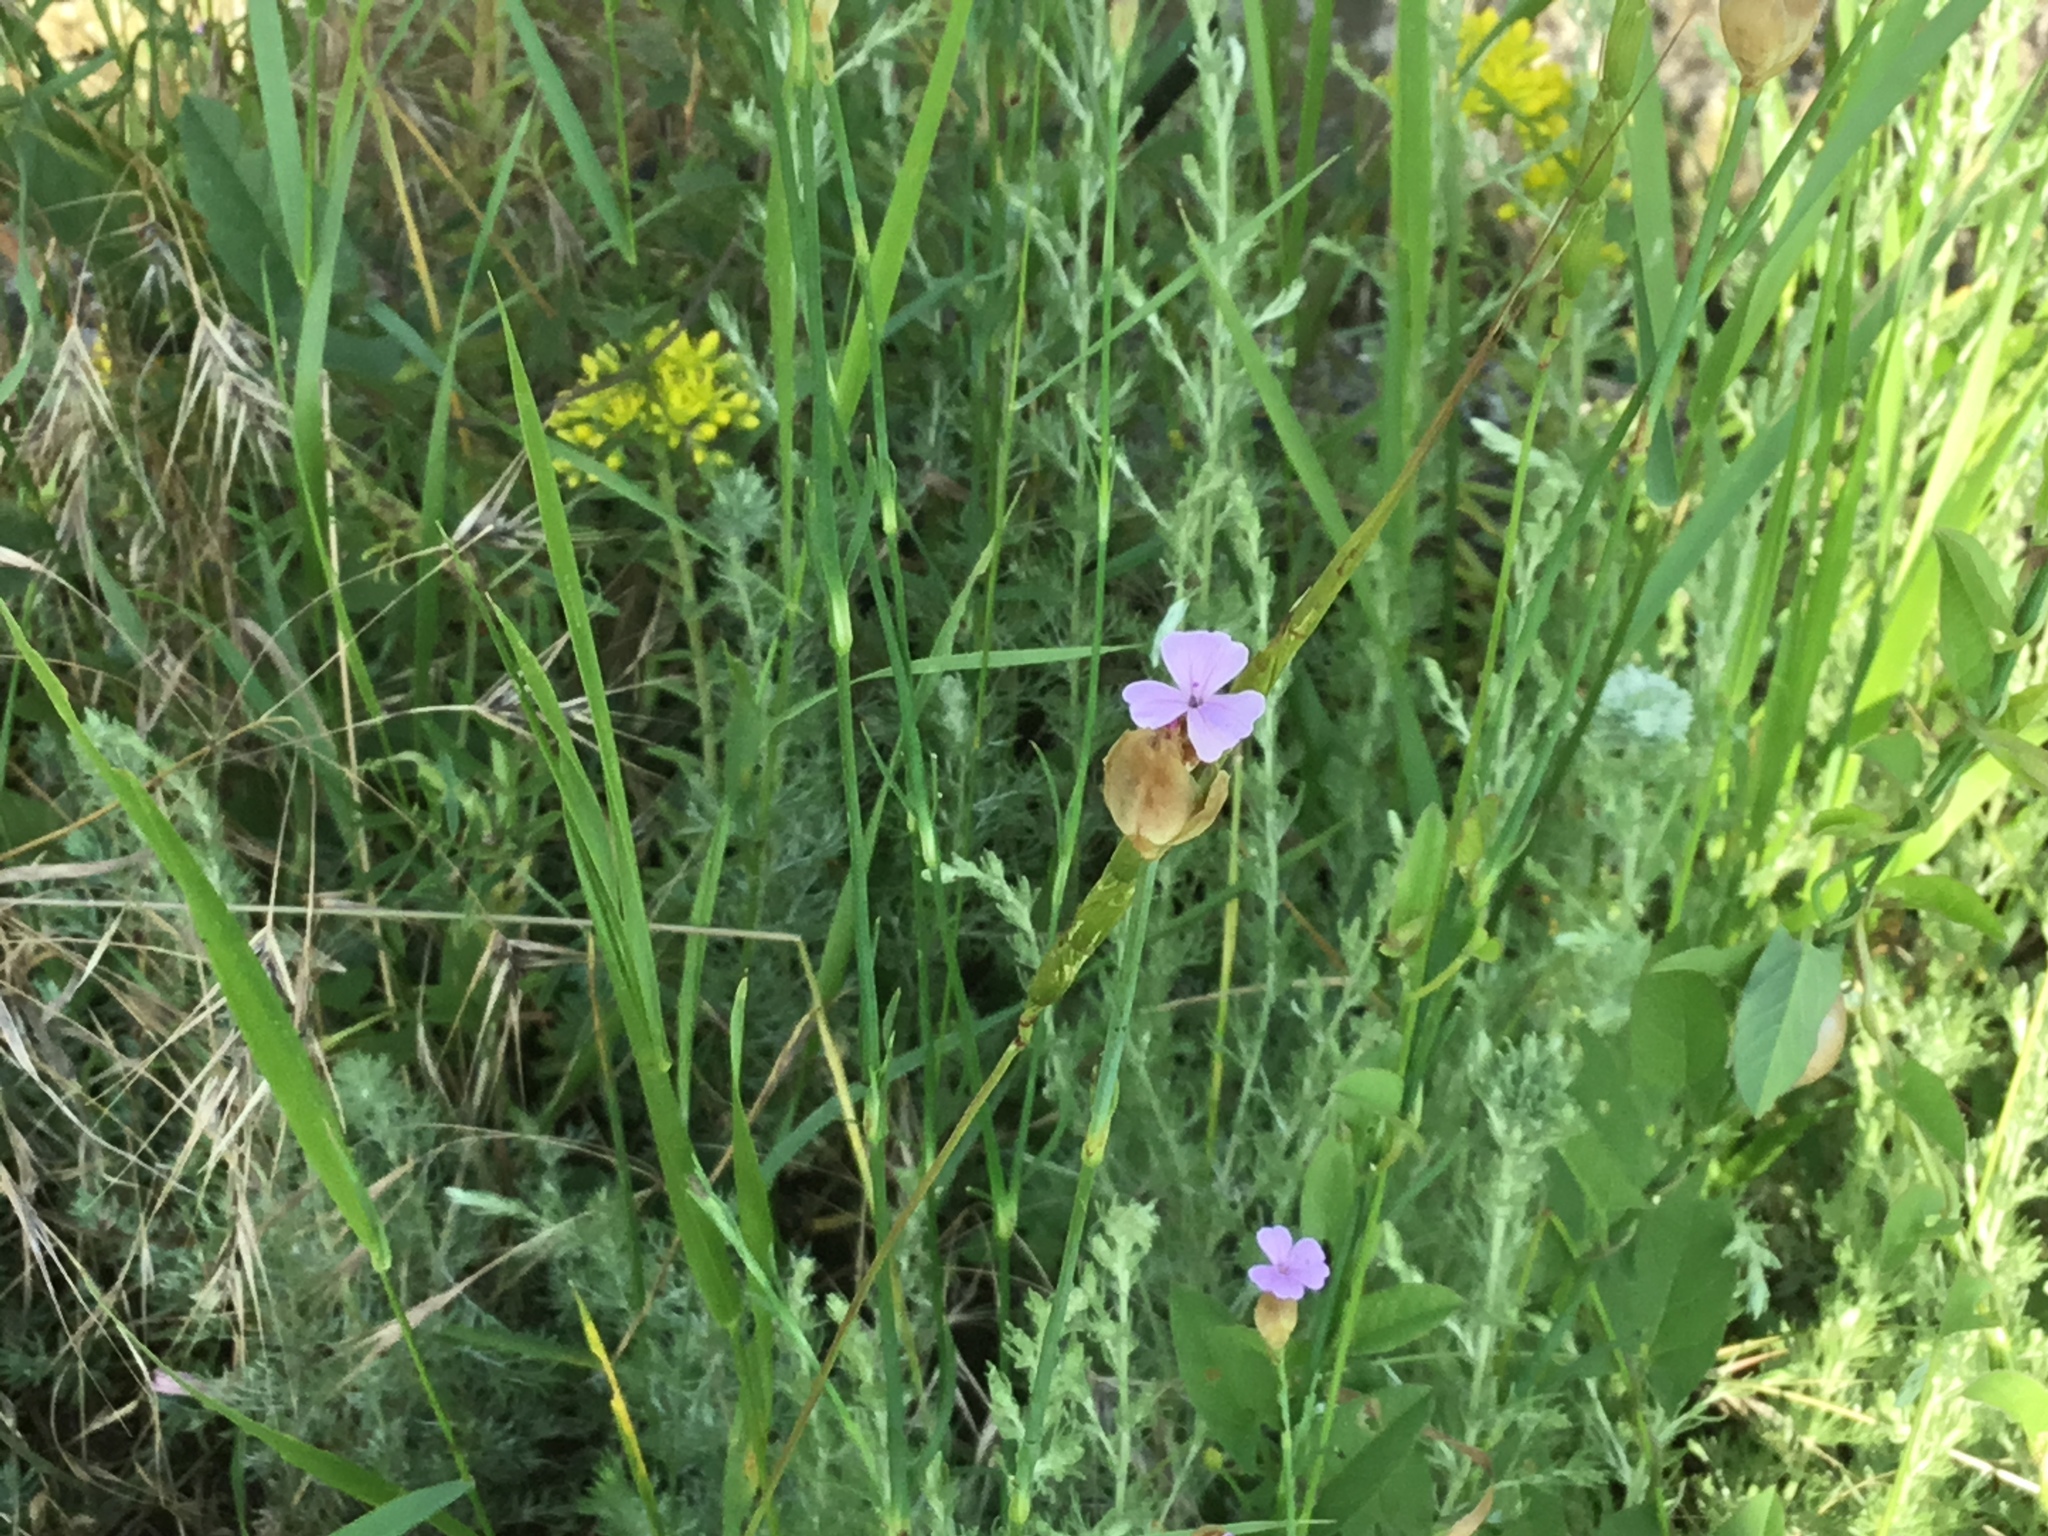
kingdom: Plantae
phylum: Tracheophyta
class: Magnoliopsida
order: Caryophyllales
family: Caryophyllaceae
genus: Petrorhagia
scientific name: Petrorhagia prolifera
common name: Proliferous pink
